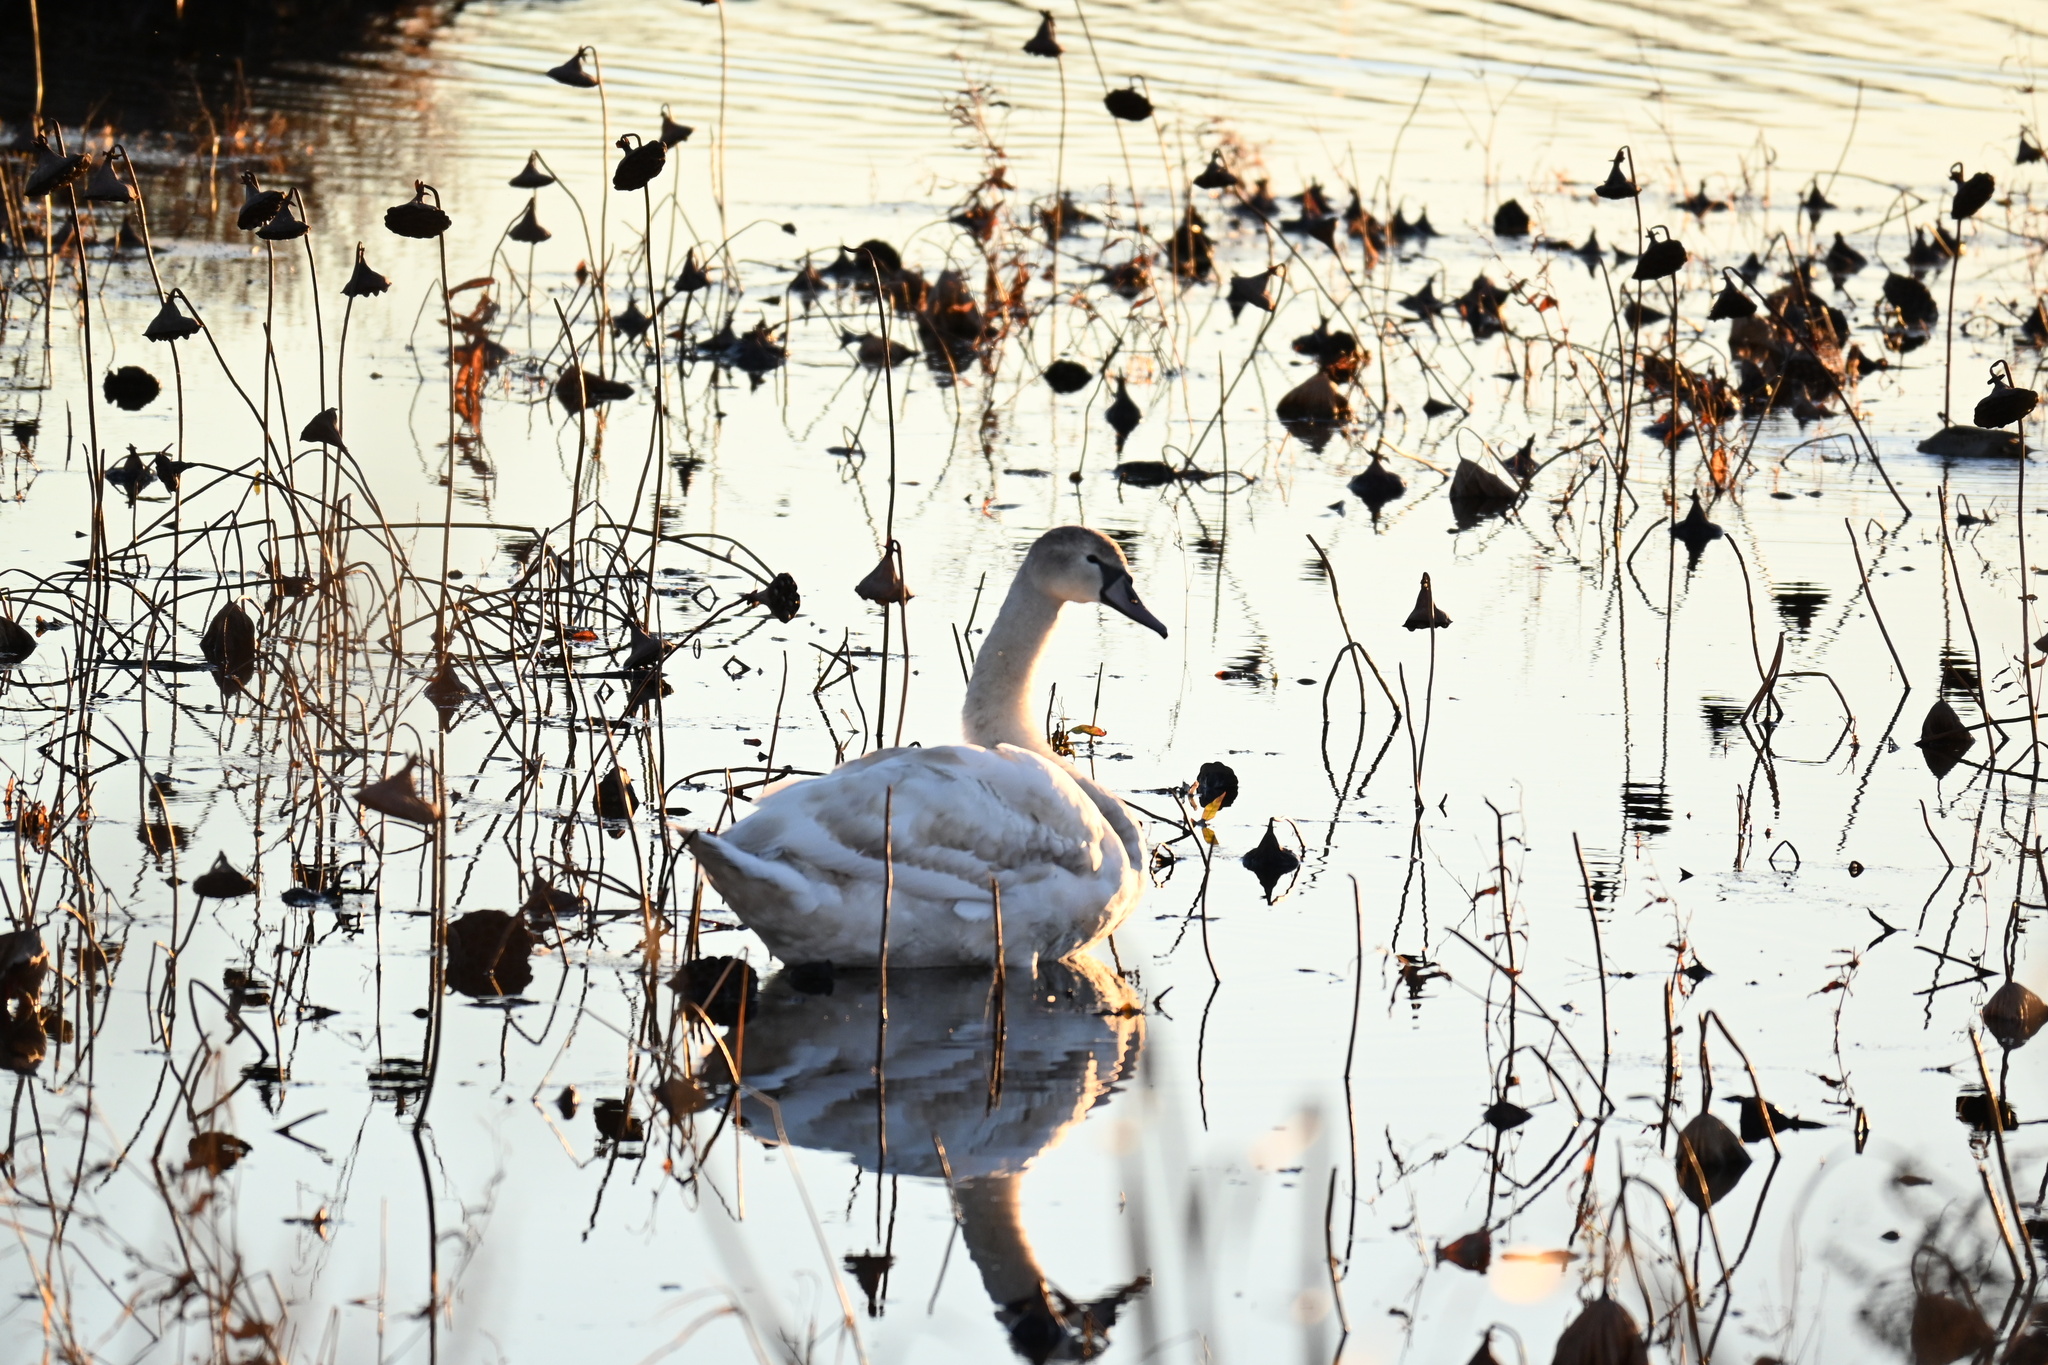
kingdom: Animalia
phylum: Chordata
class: Aves
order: Anseriformes
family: Anatidae
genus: Cygnus
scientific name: Cygnus olor
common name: Mute swan
